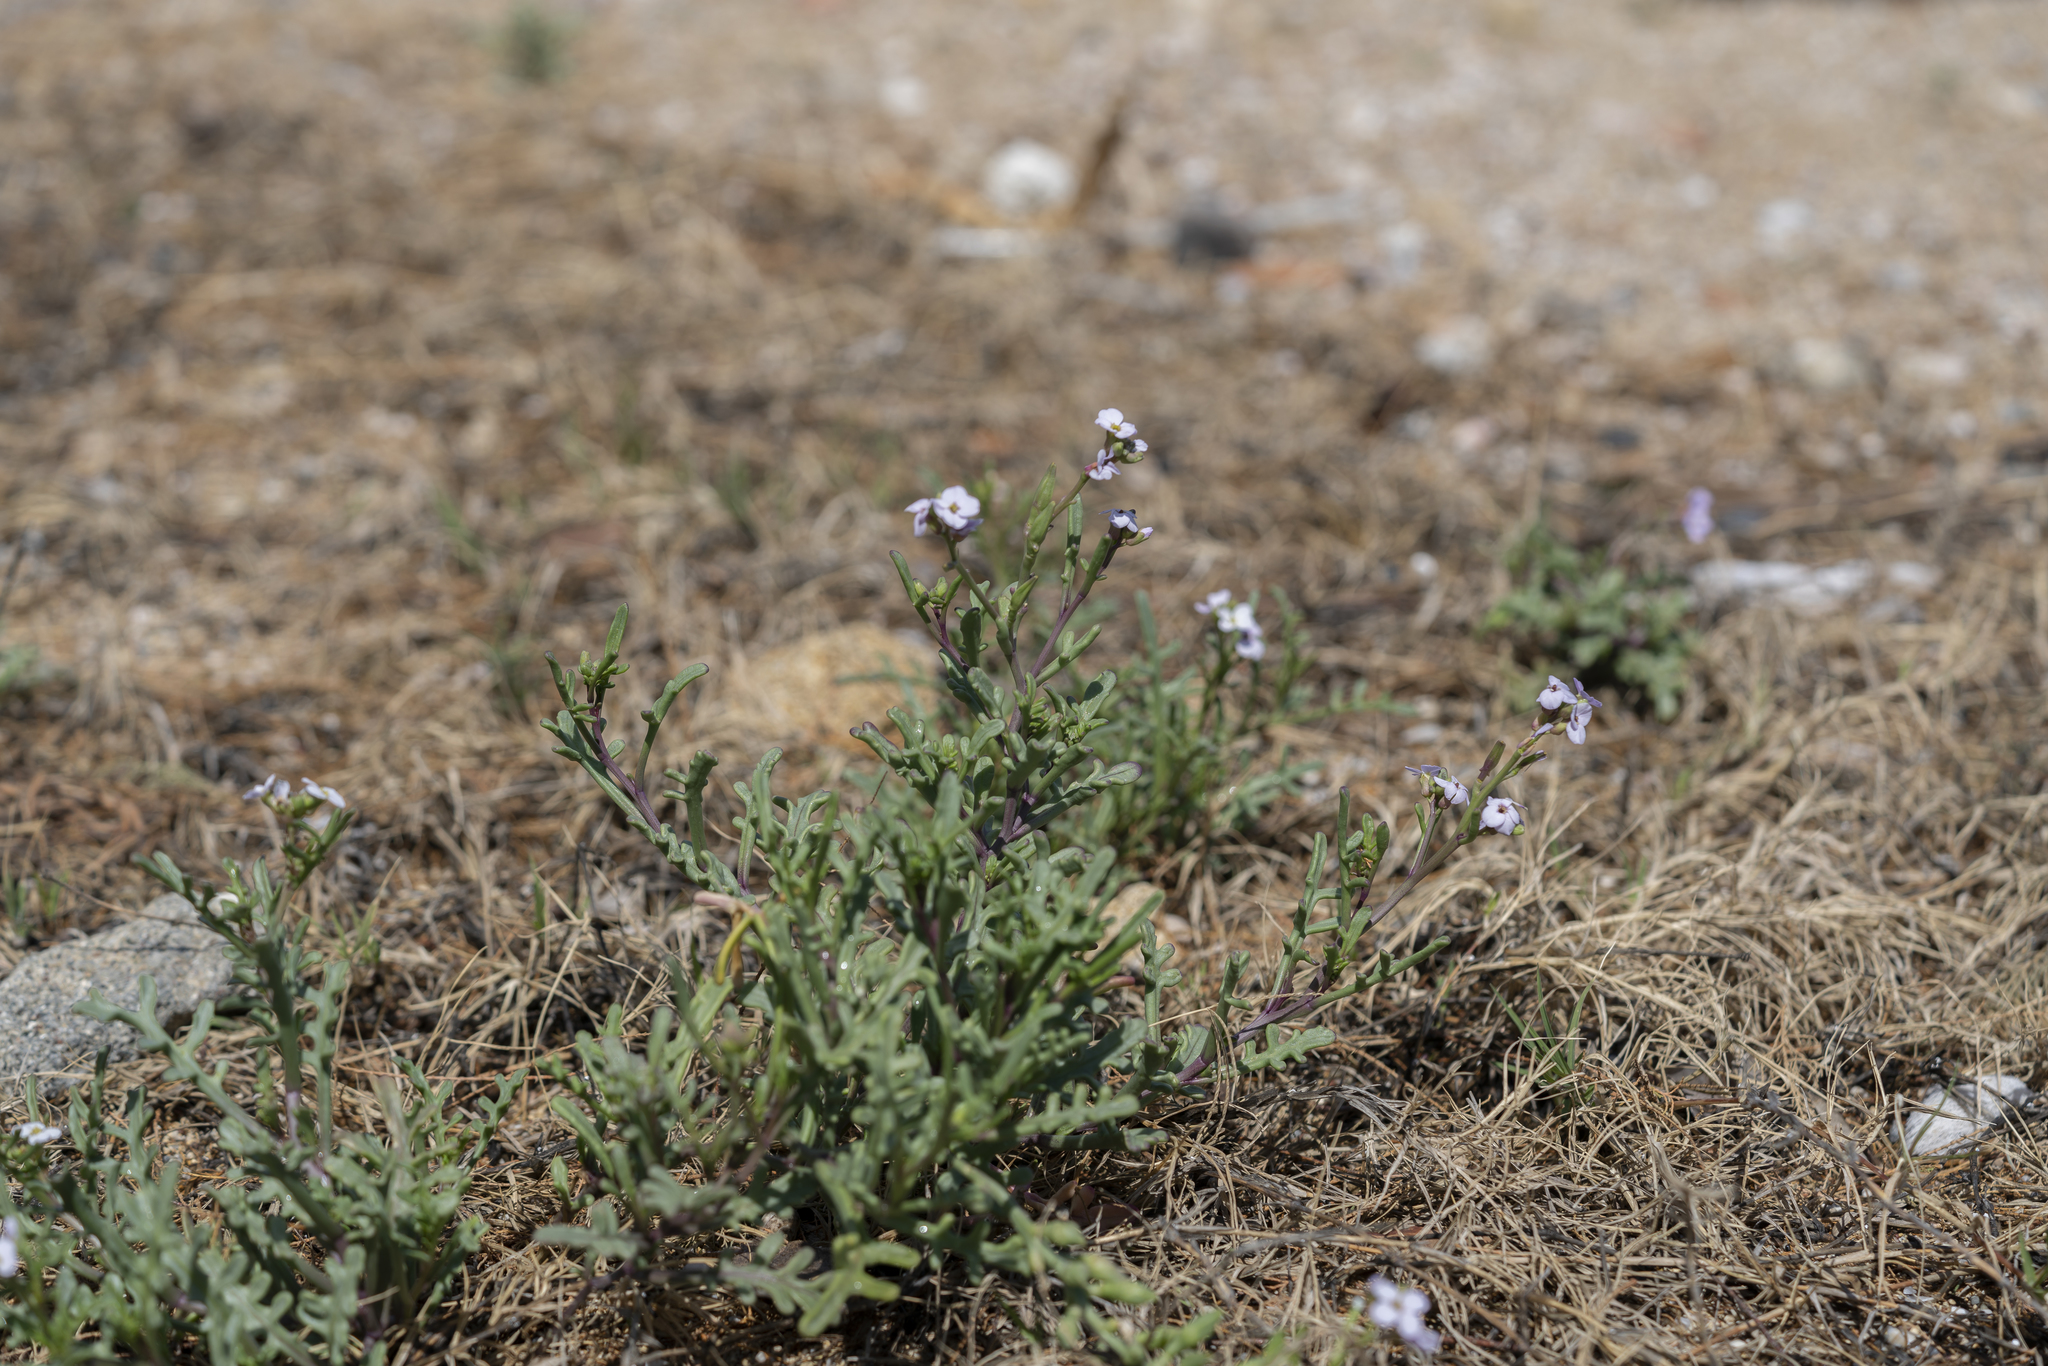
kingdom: Plantae
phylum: Tracheophyta
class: Magnoliopsida
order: Brassicales
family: Brassicaceae
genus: Cakile
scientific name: Cakile maritima
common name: Sea rocket
